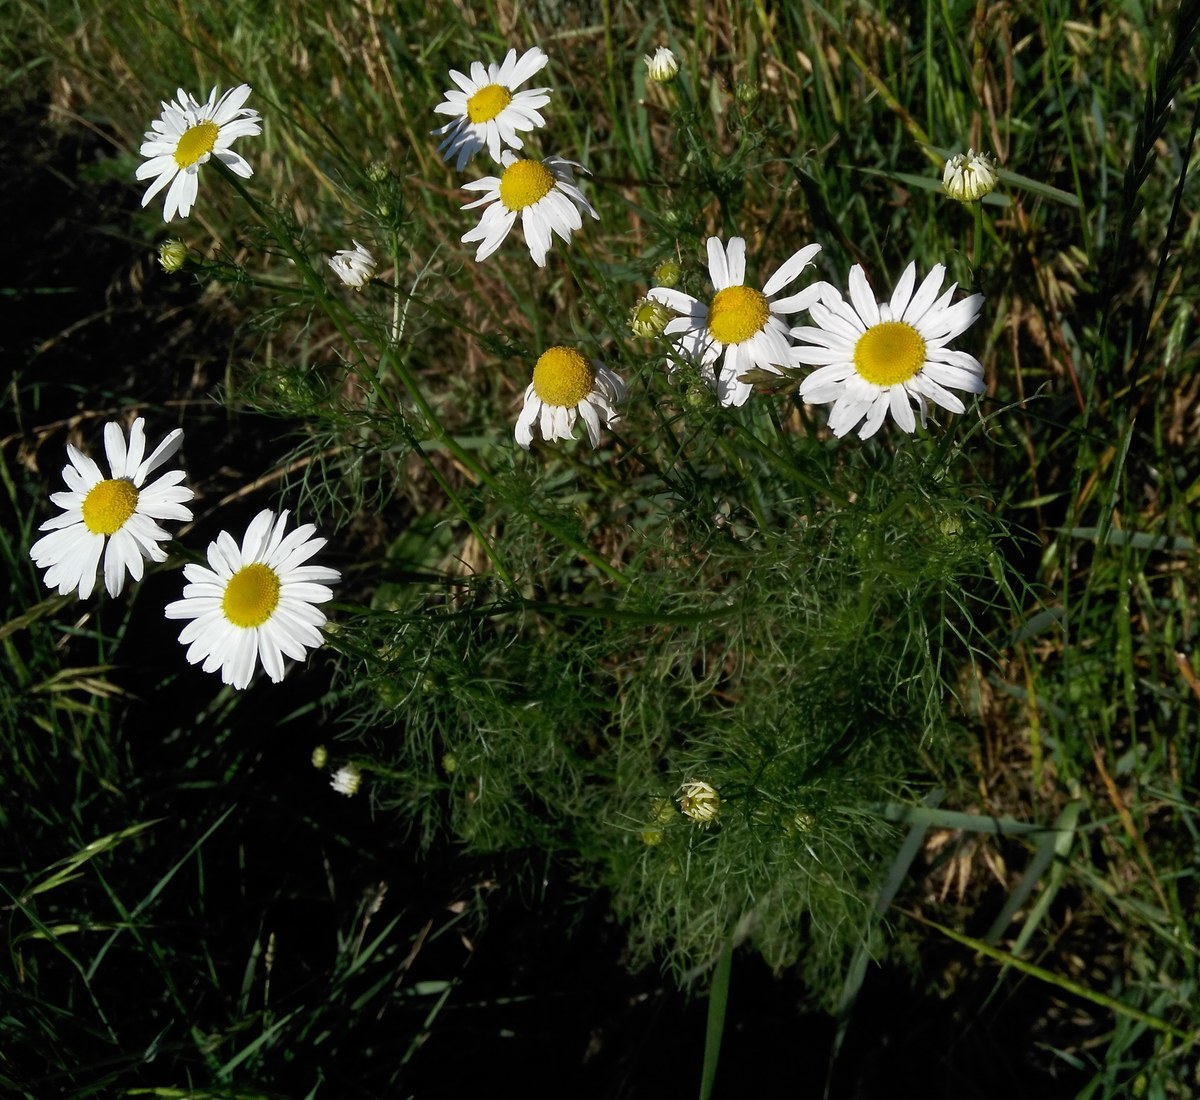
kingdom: Plantae
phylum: Tracheophyta
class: Magnoliopsida
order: Asterales
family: Asteraceae
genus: Tripleurospermum
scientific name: Tripleurospermum inodorum
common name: Scentless mayweed
